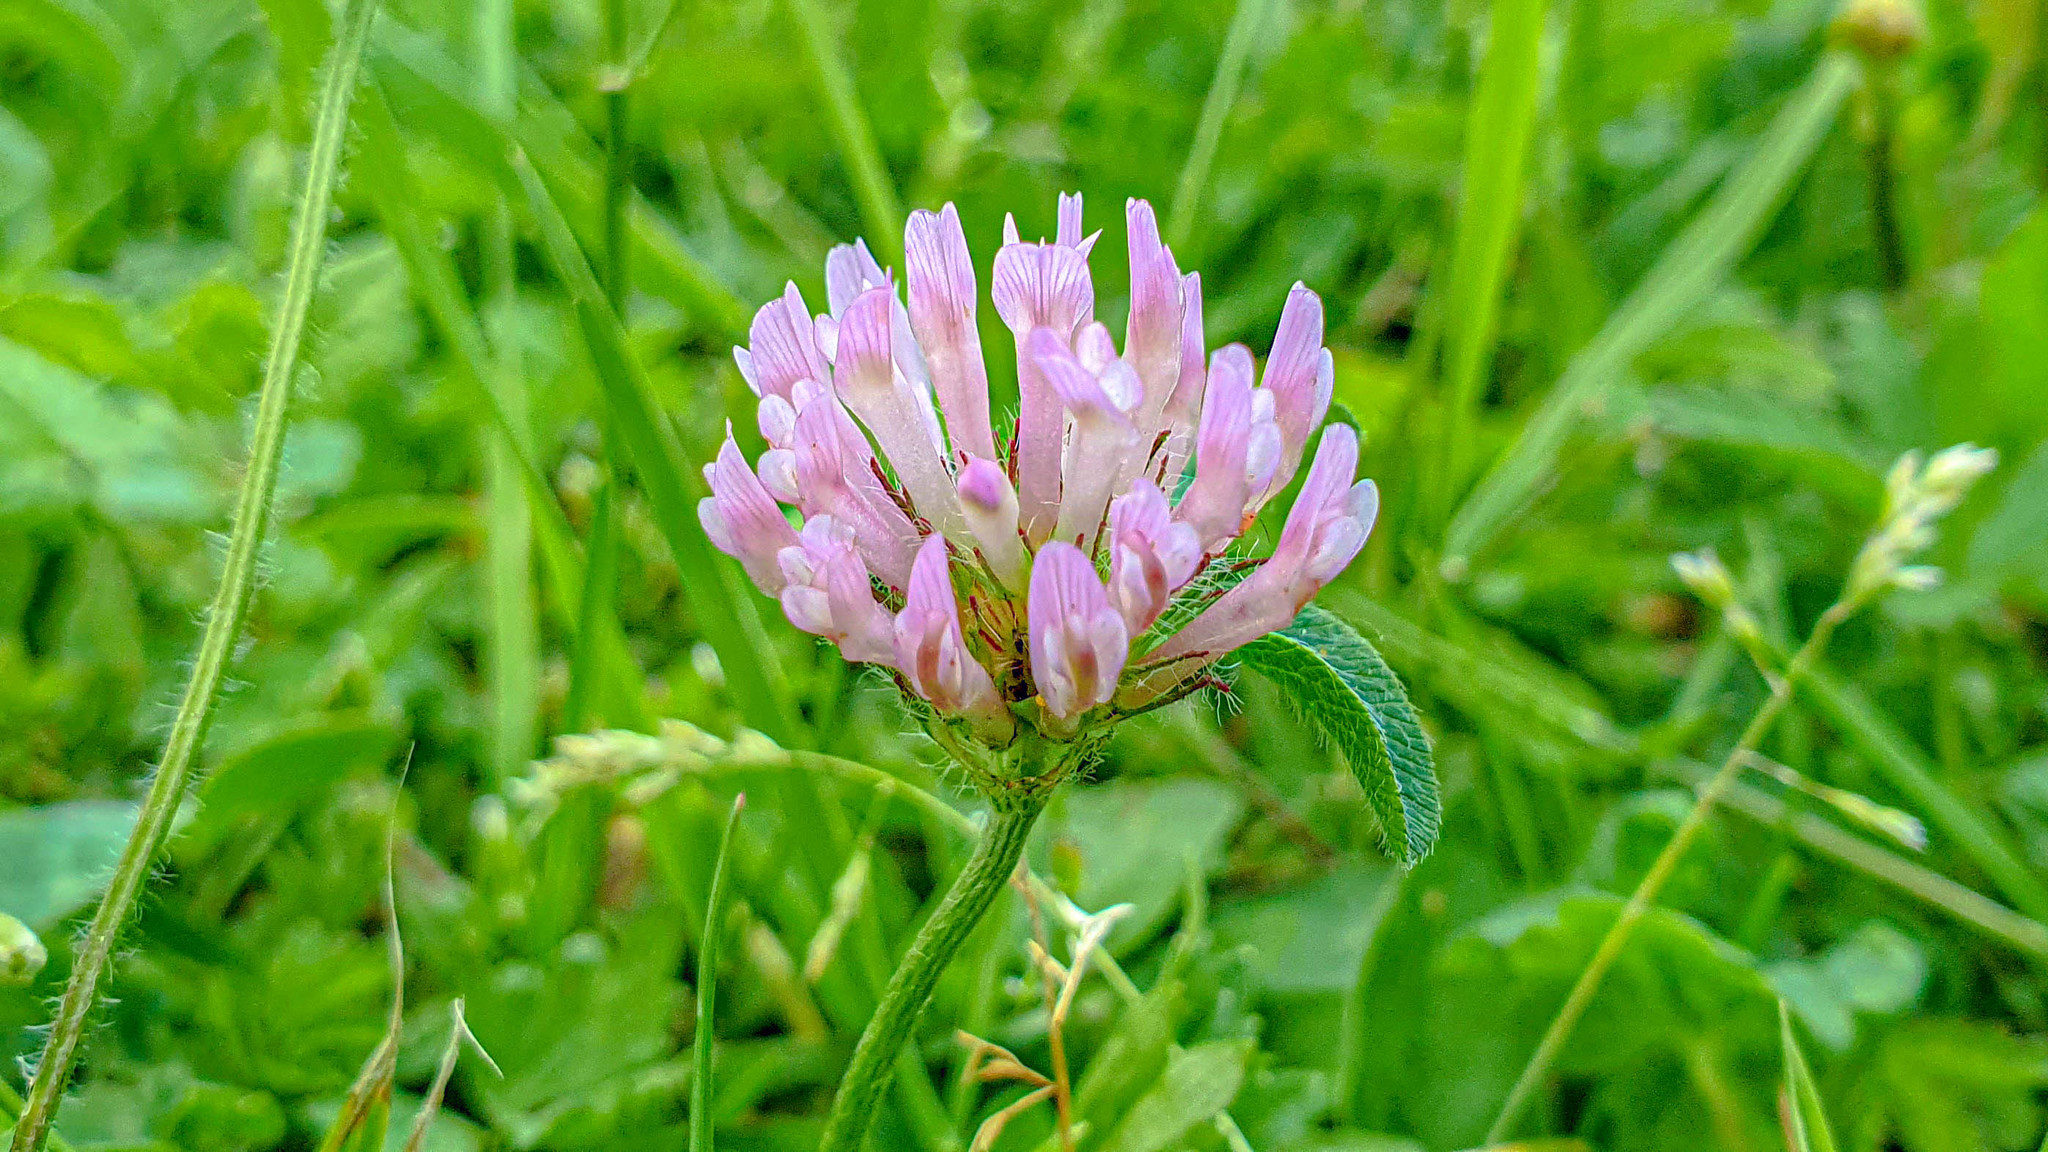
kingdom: Plantae
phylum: Tracheophyta
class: Magnoliopsida
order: Fabales
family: Fabaceae
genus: Trifolium
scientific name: Trifolium pratense
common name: Red clover
